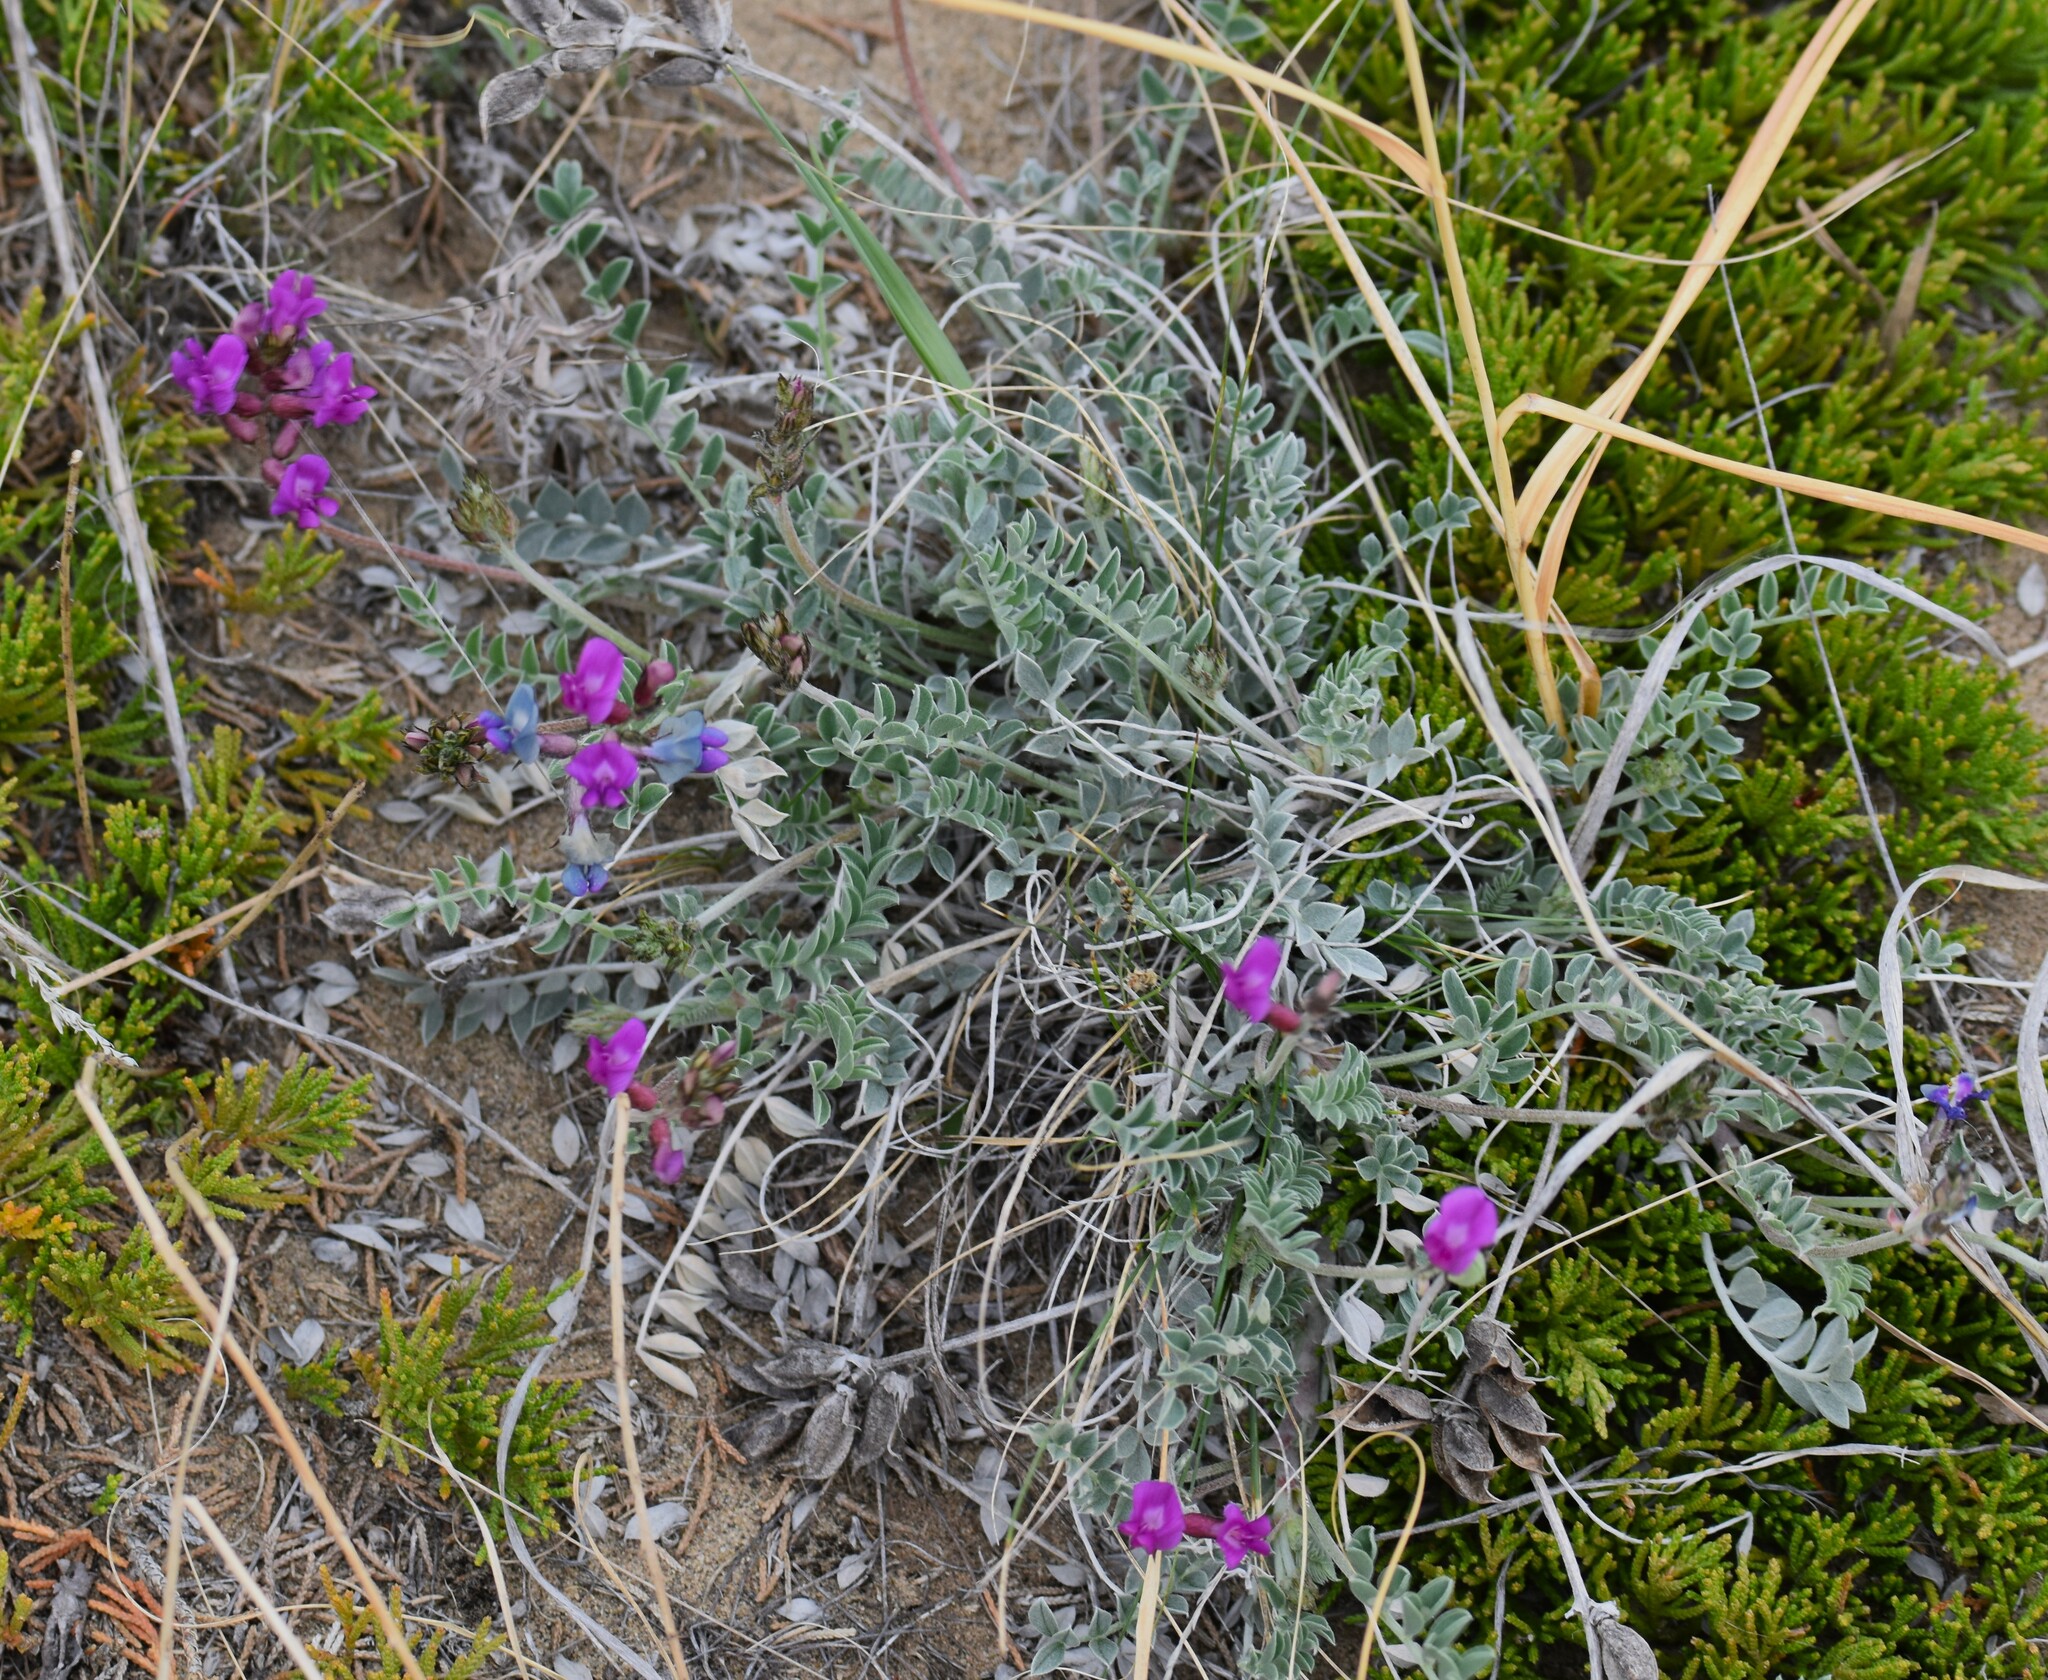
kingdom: Plantae
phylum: Tracheophyta
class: Magnoliopsida
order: Fabales
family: Fabaceae
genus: Astragalus
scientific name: Astragalus missouriensis
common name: Missouri milk-vetch
